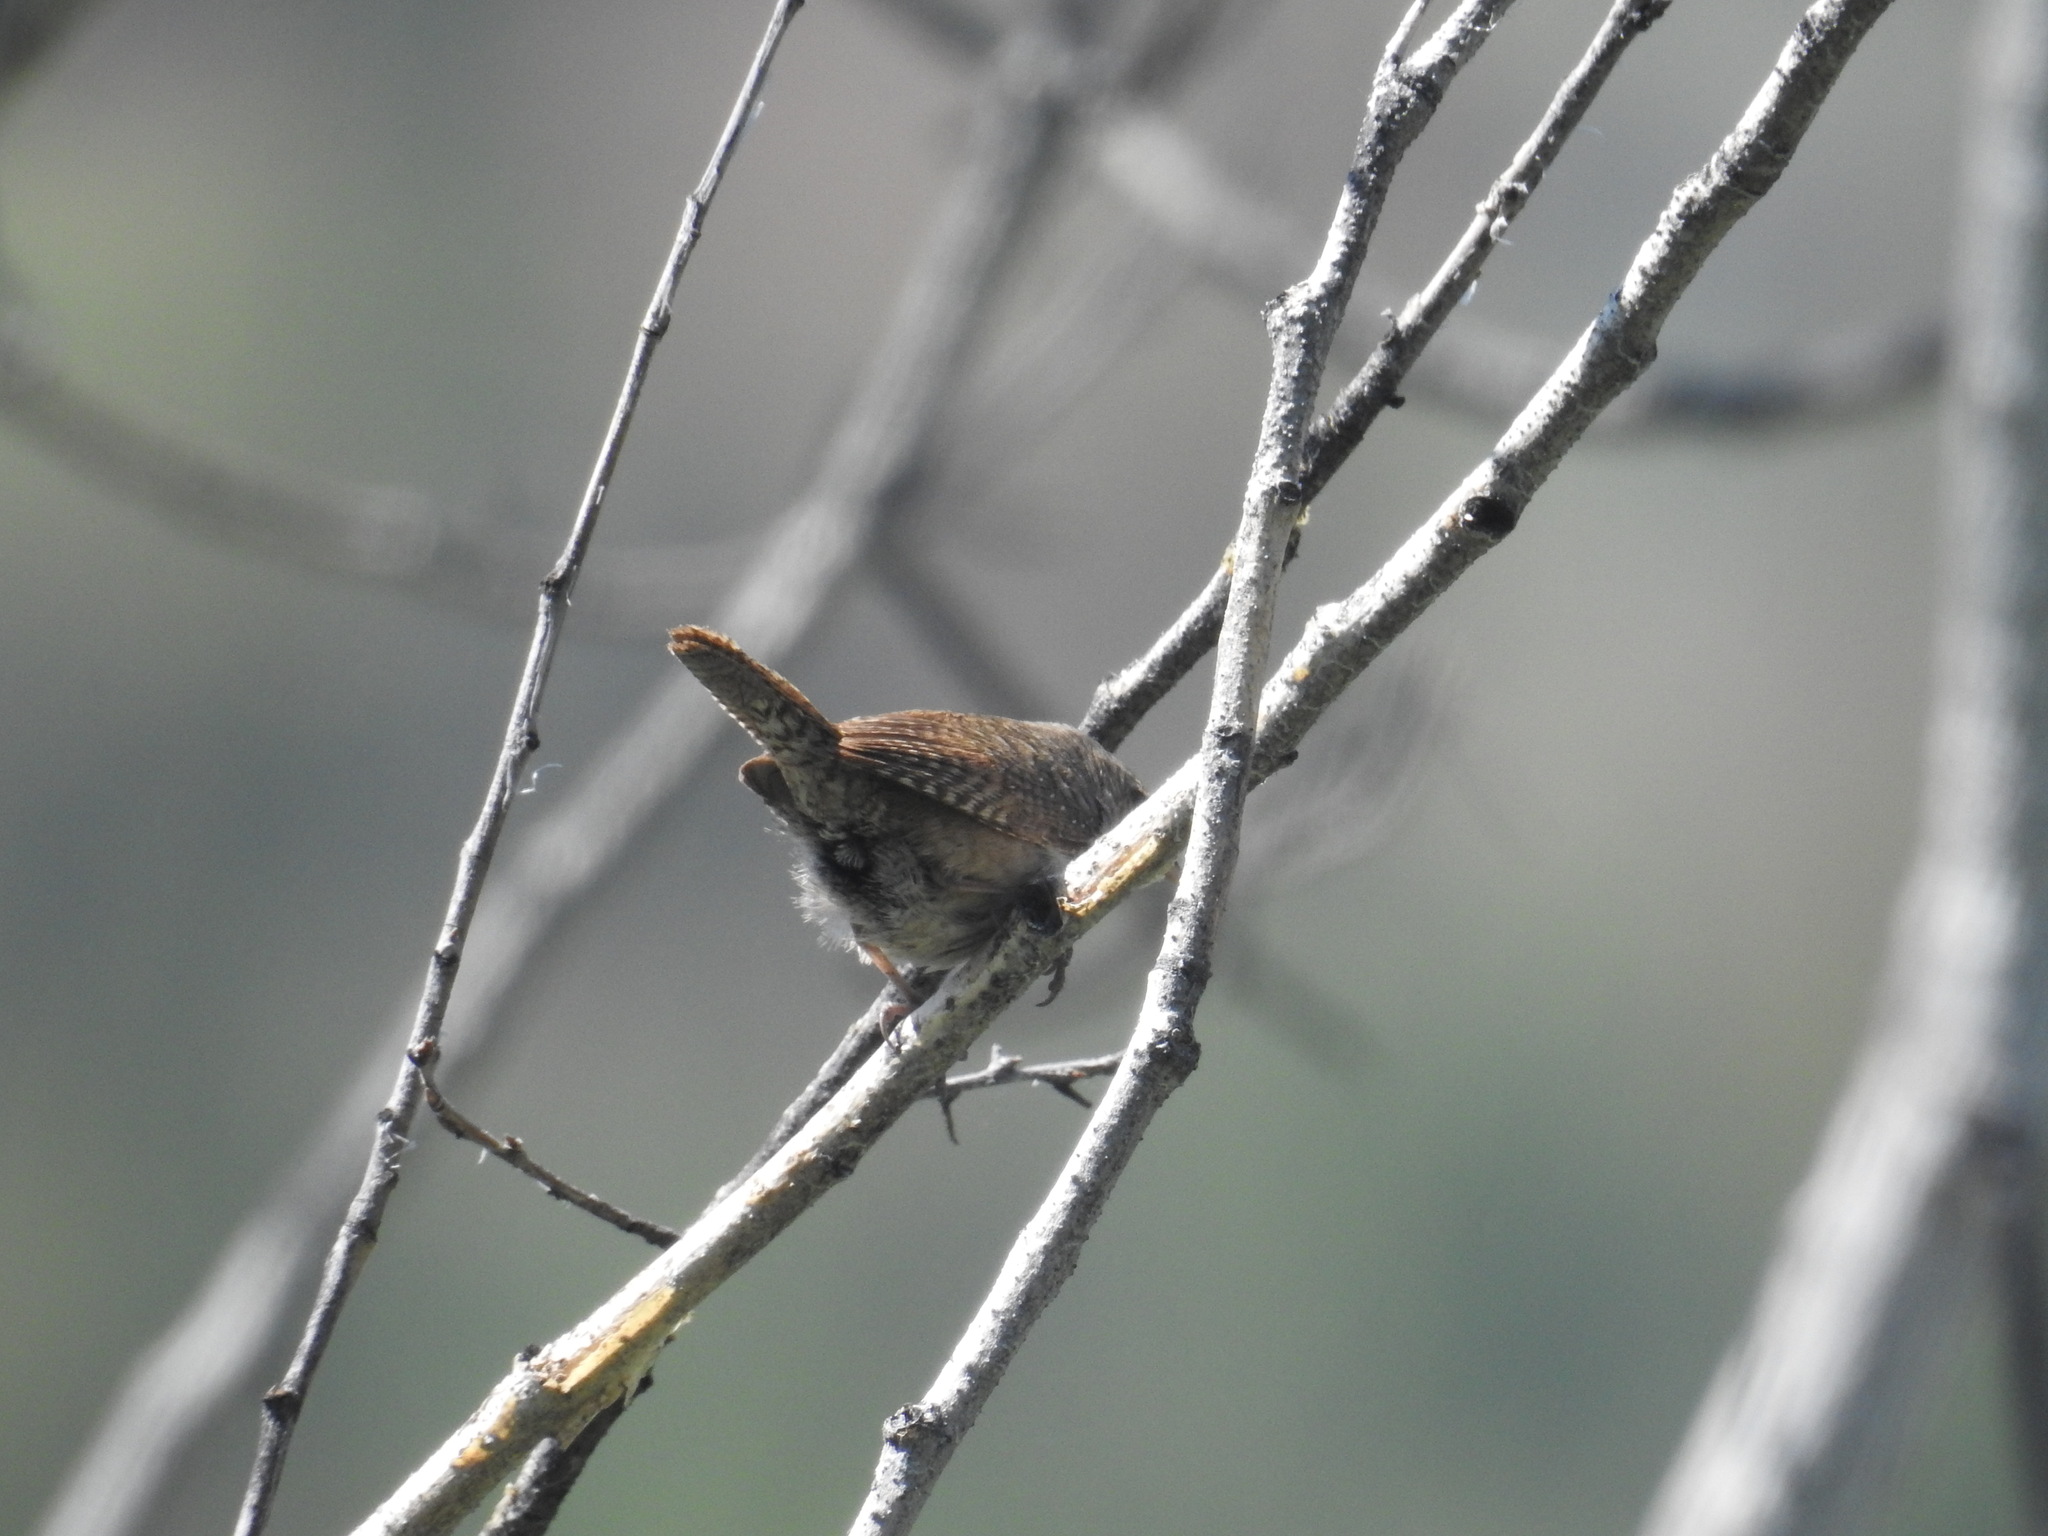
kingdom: Animalia
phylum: Chordata
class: Aves
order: Passeriformes
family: Troglodytidae
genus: Troglodytes
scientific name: Troglodytes aedon
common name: House wren
